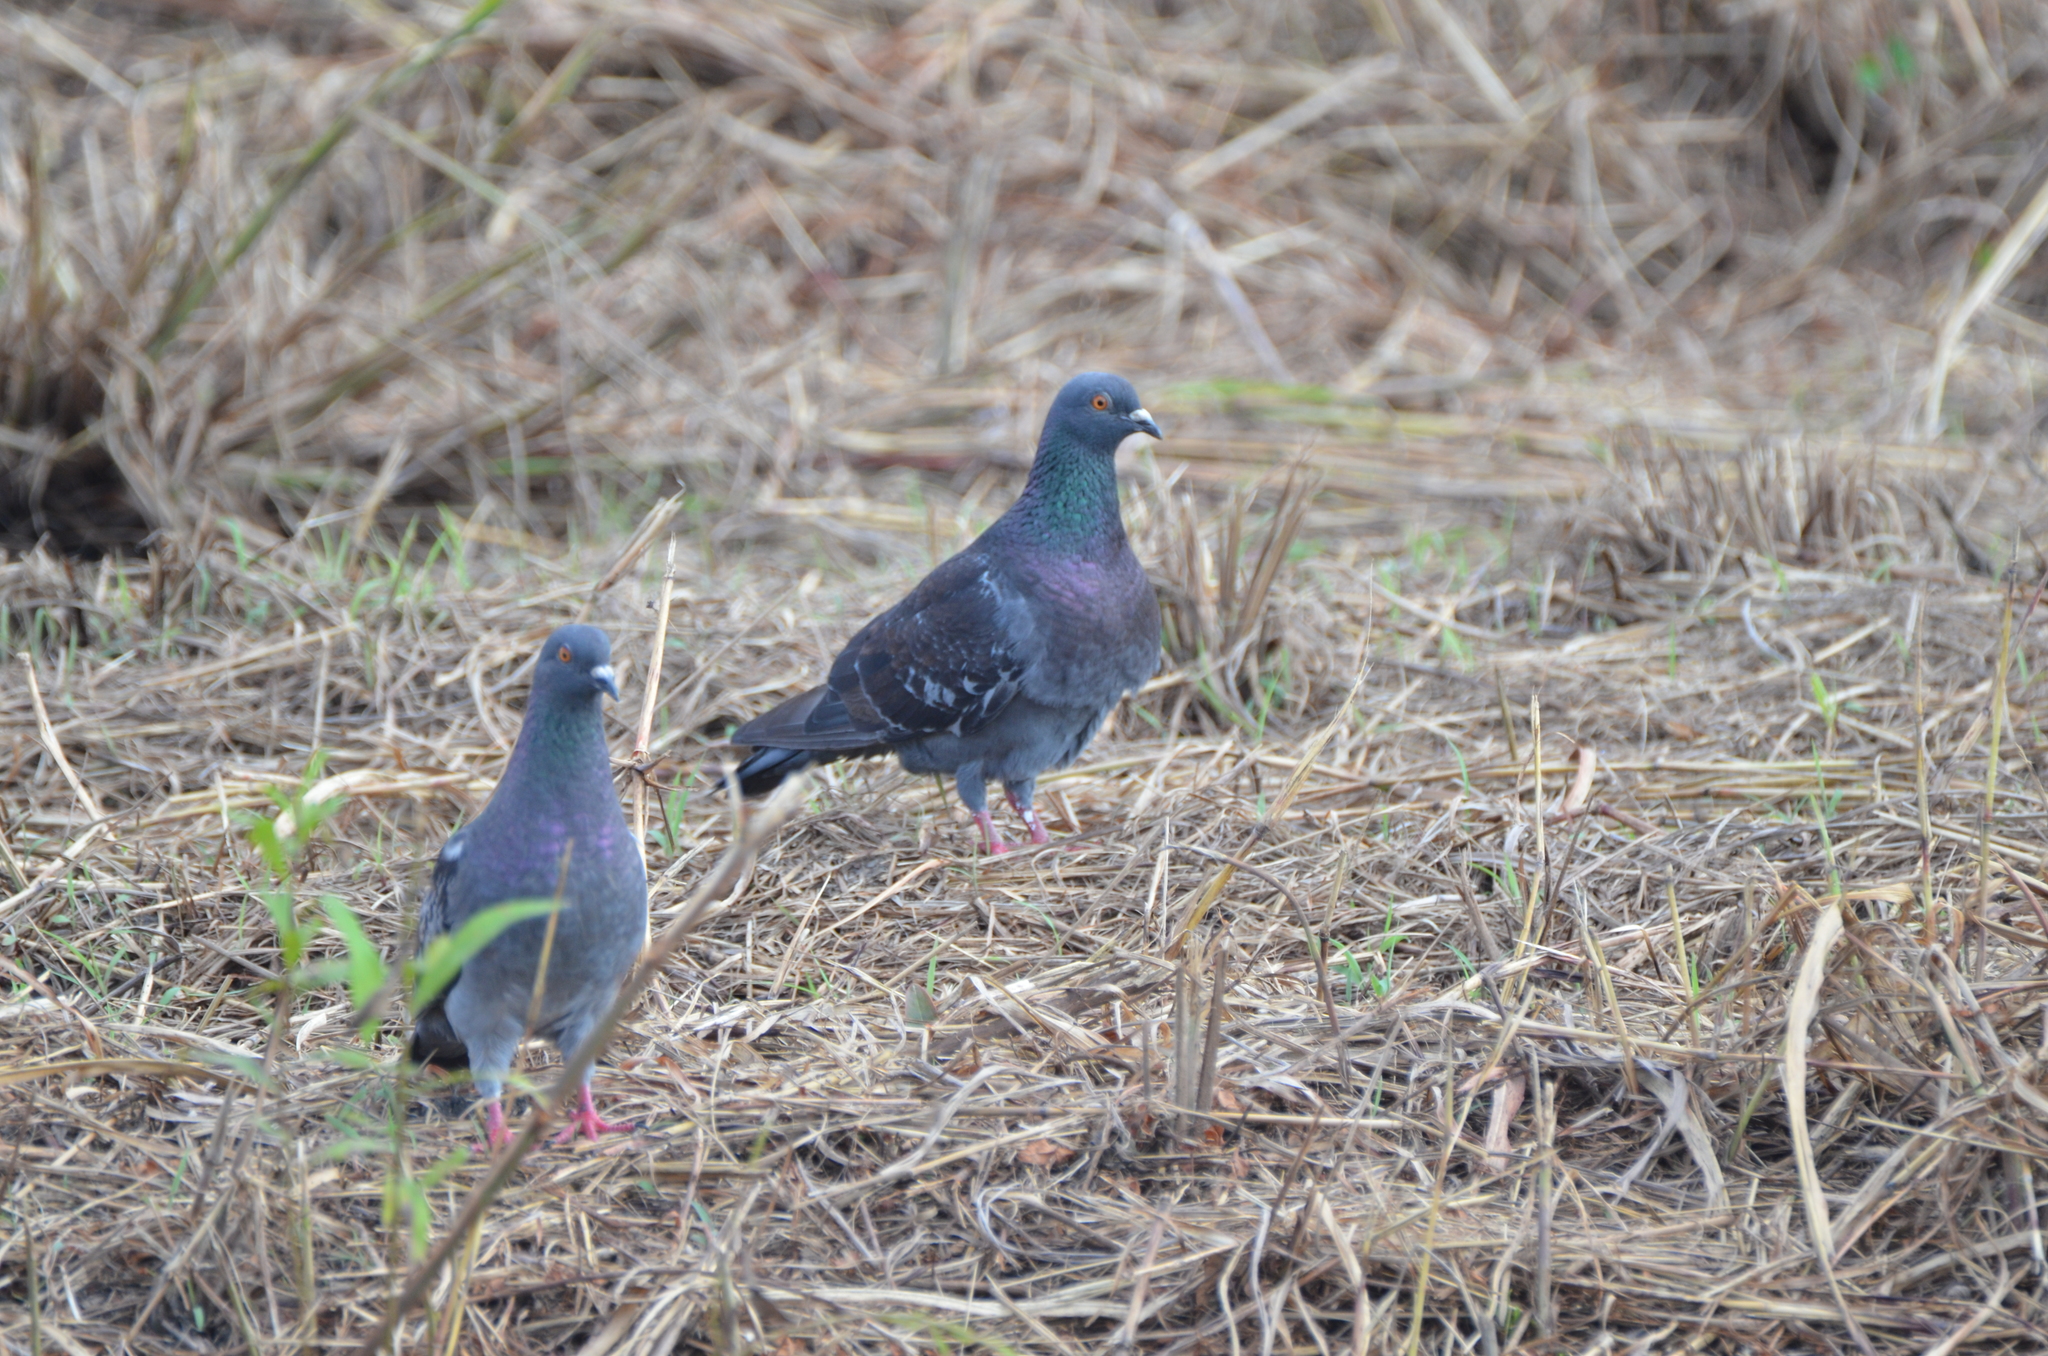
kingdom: Animalia
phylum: Chordata
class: Aves
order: Columbiformes
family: Columbidae
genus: Columba
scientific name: Columba livia
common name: Rock pigeon
